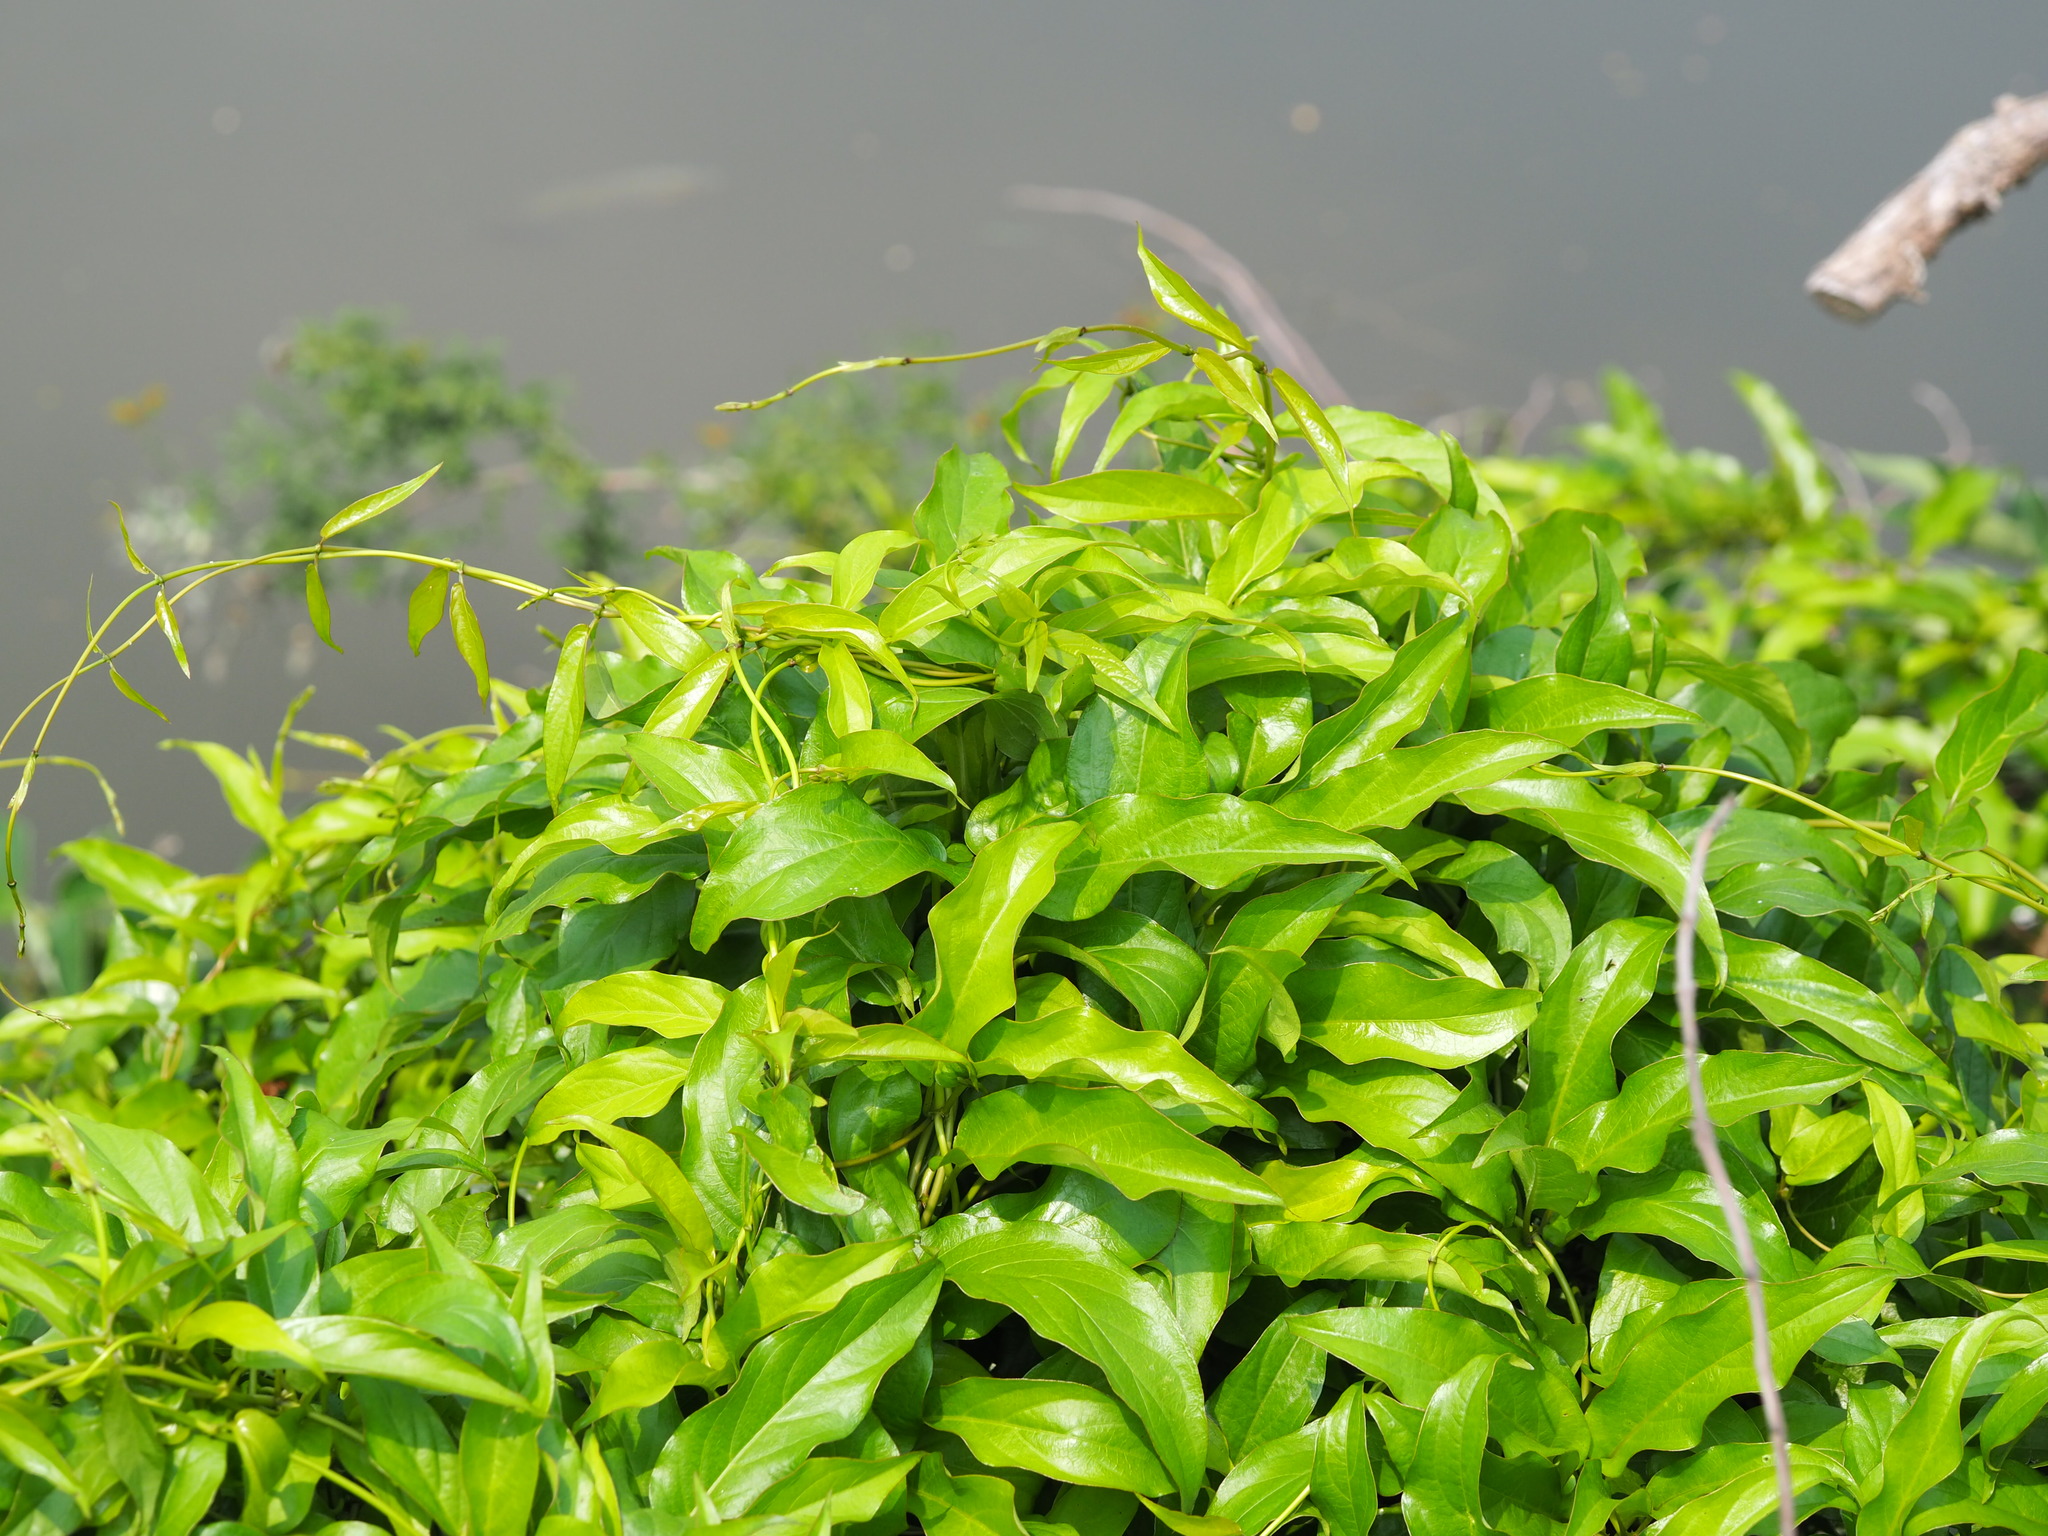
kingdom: Plantae
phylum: Tracheophyta
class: Magnoliopsida
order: Gentianales
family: Rubiaceae
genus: Paederia
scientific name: Paederia foetida
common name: Stinkvine
